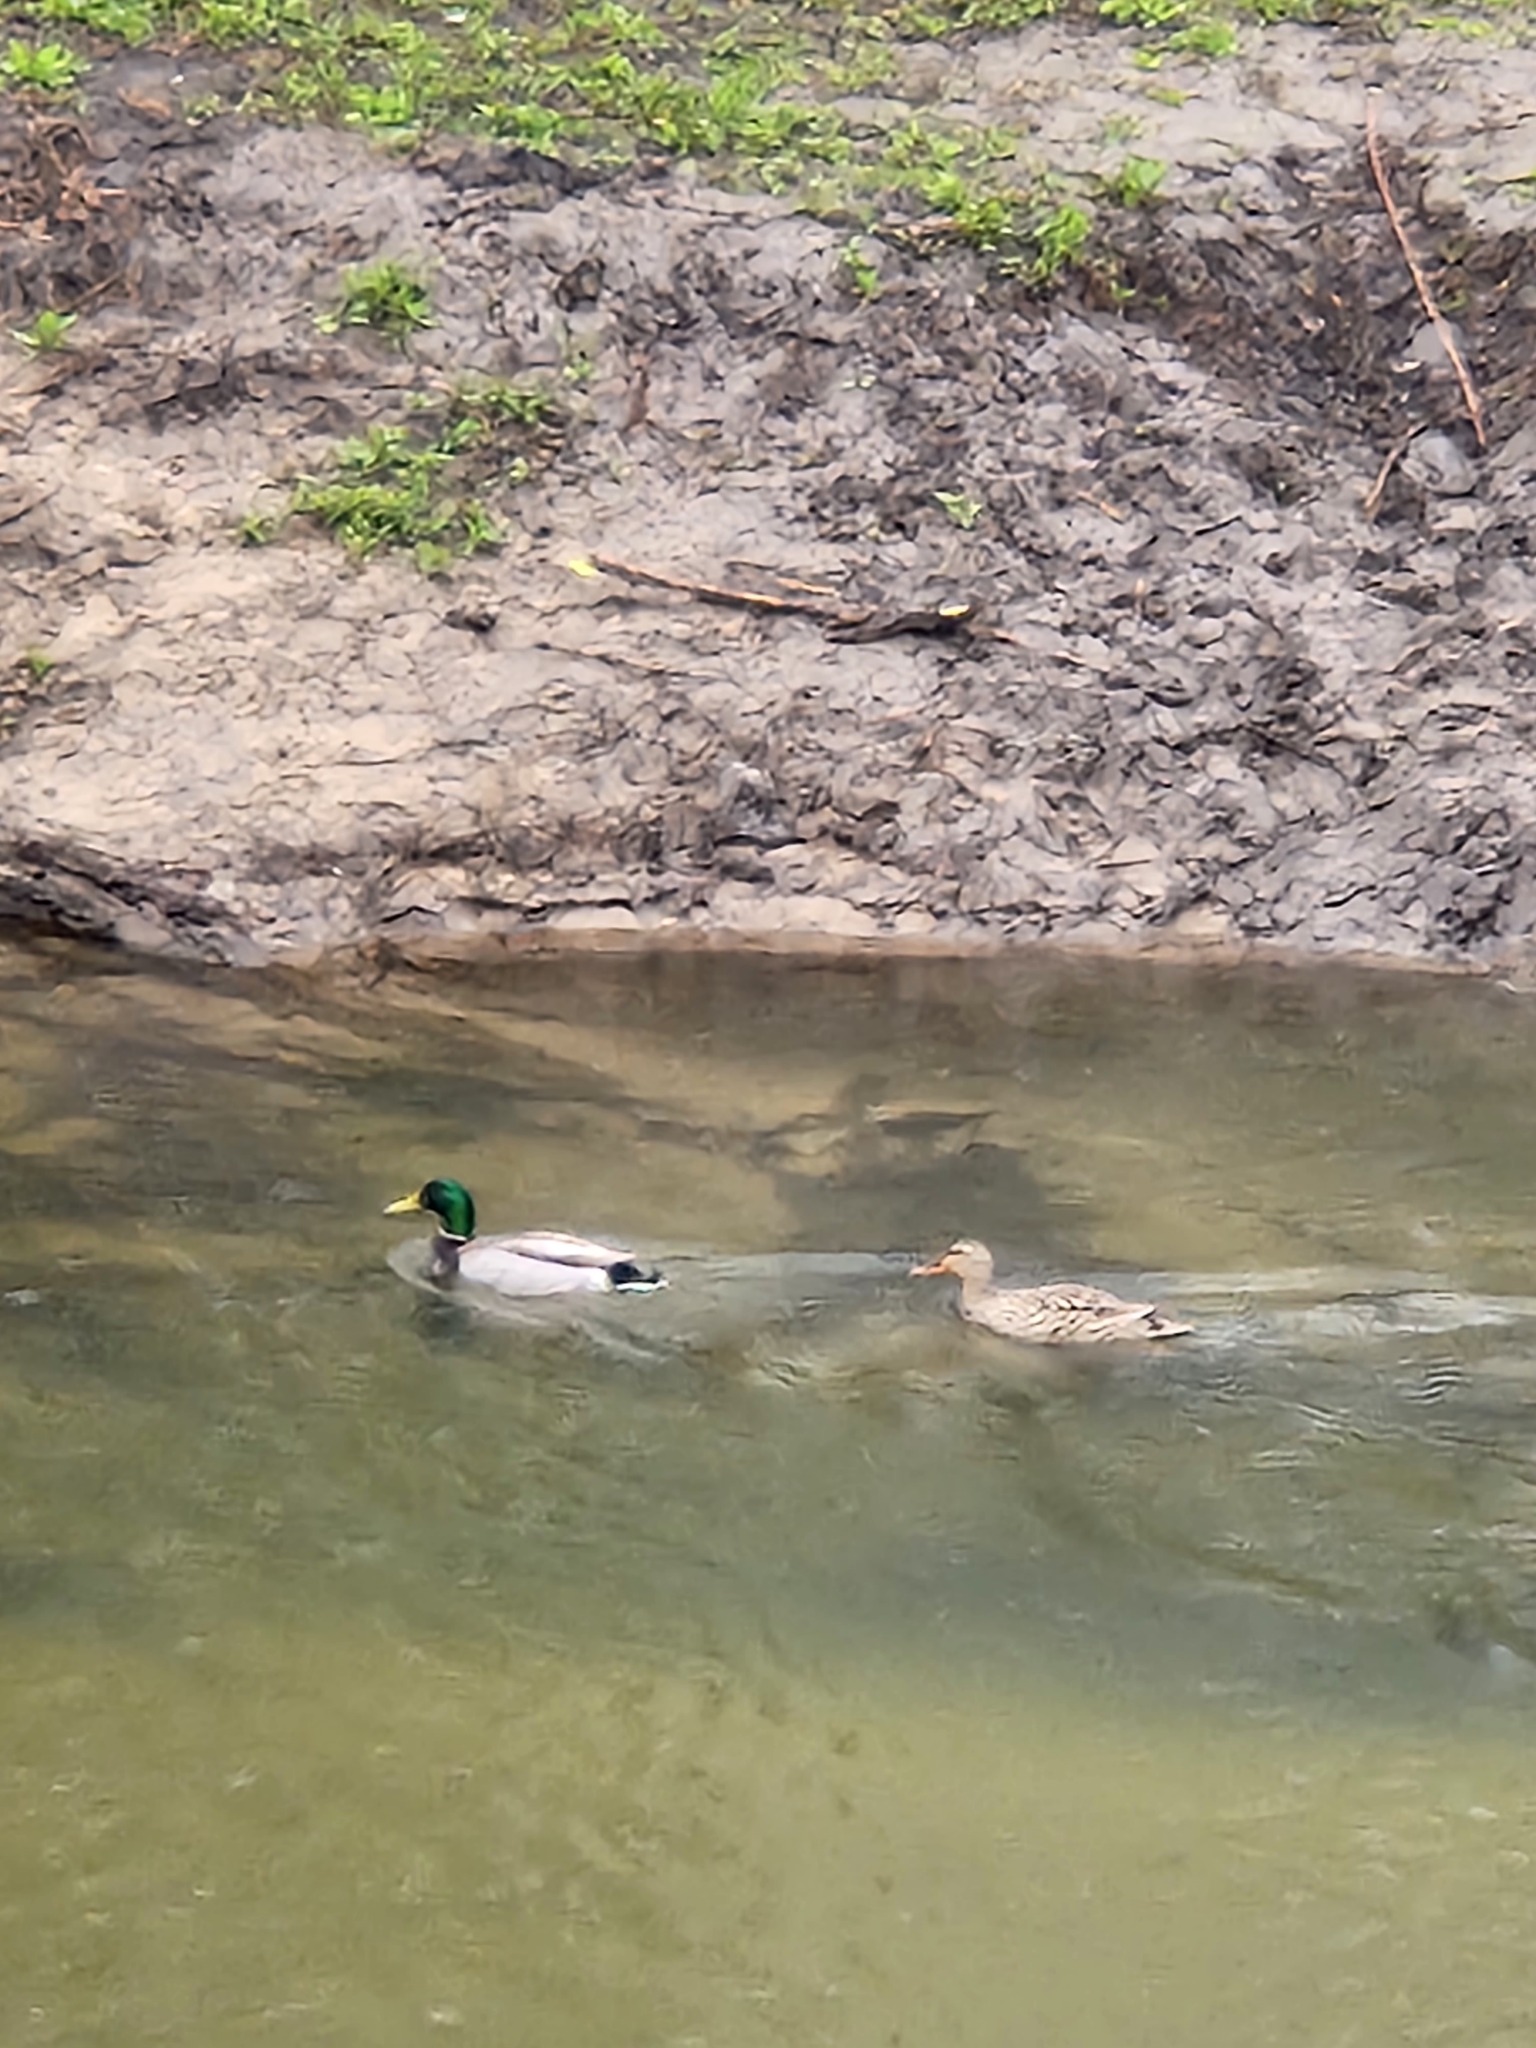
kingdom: Animalia
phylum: Chordata
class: Aves
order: Anseriformes
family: Anatidae
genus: Anas
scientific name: Anas platyrhynchos
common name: Mallard
